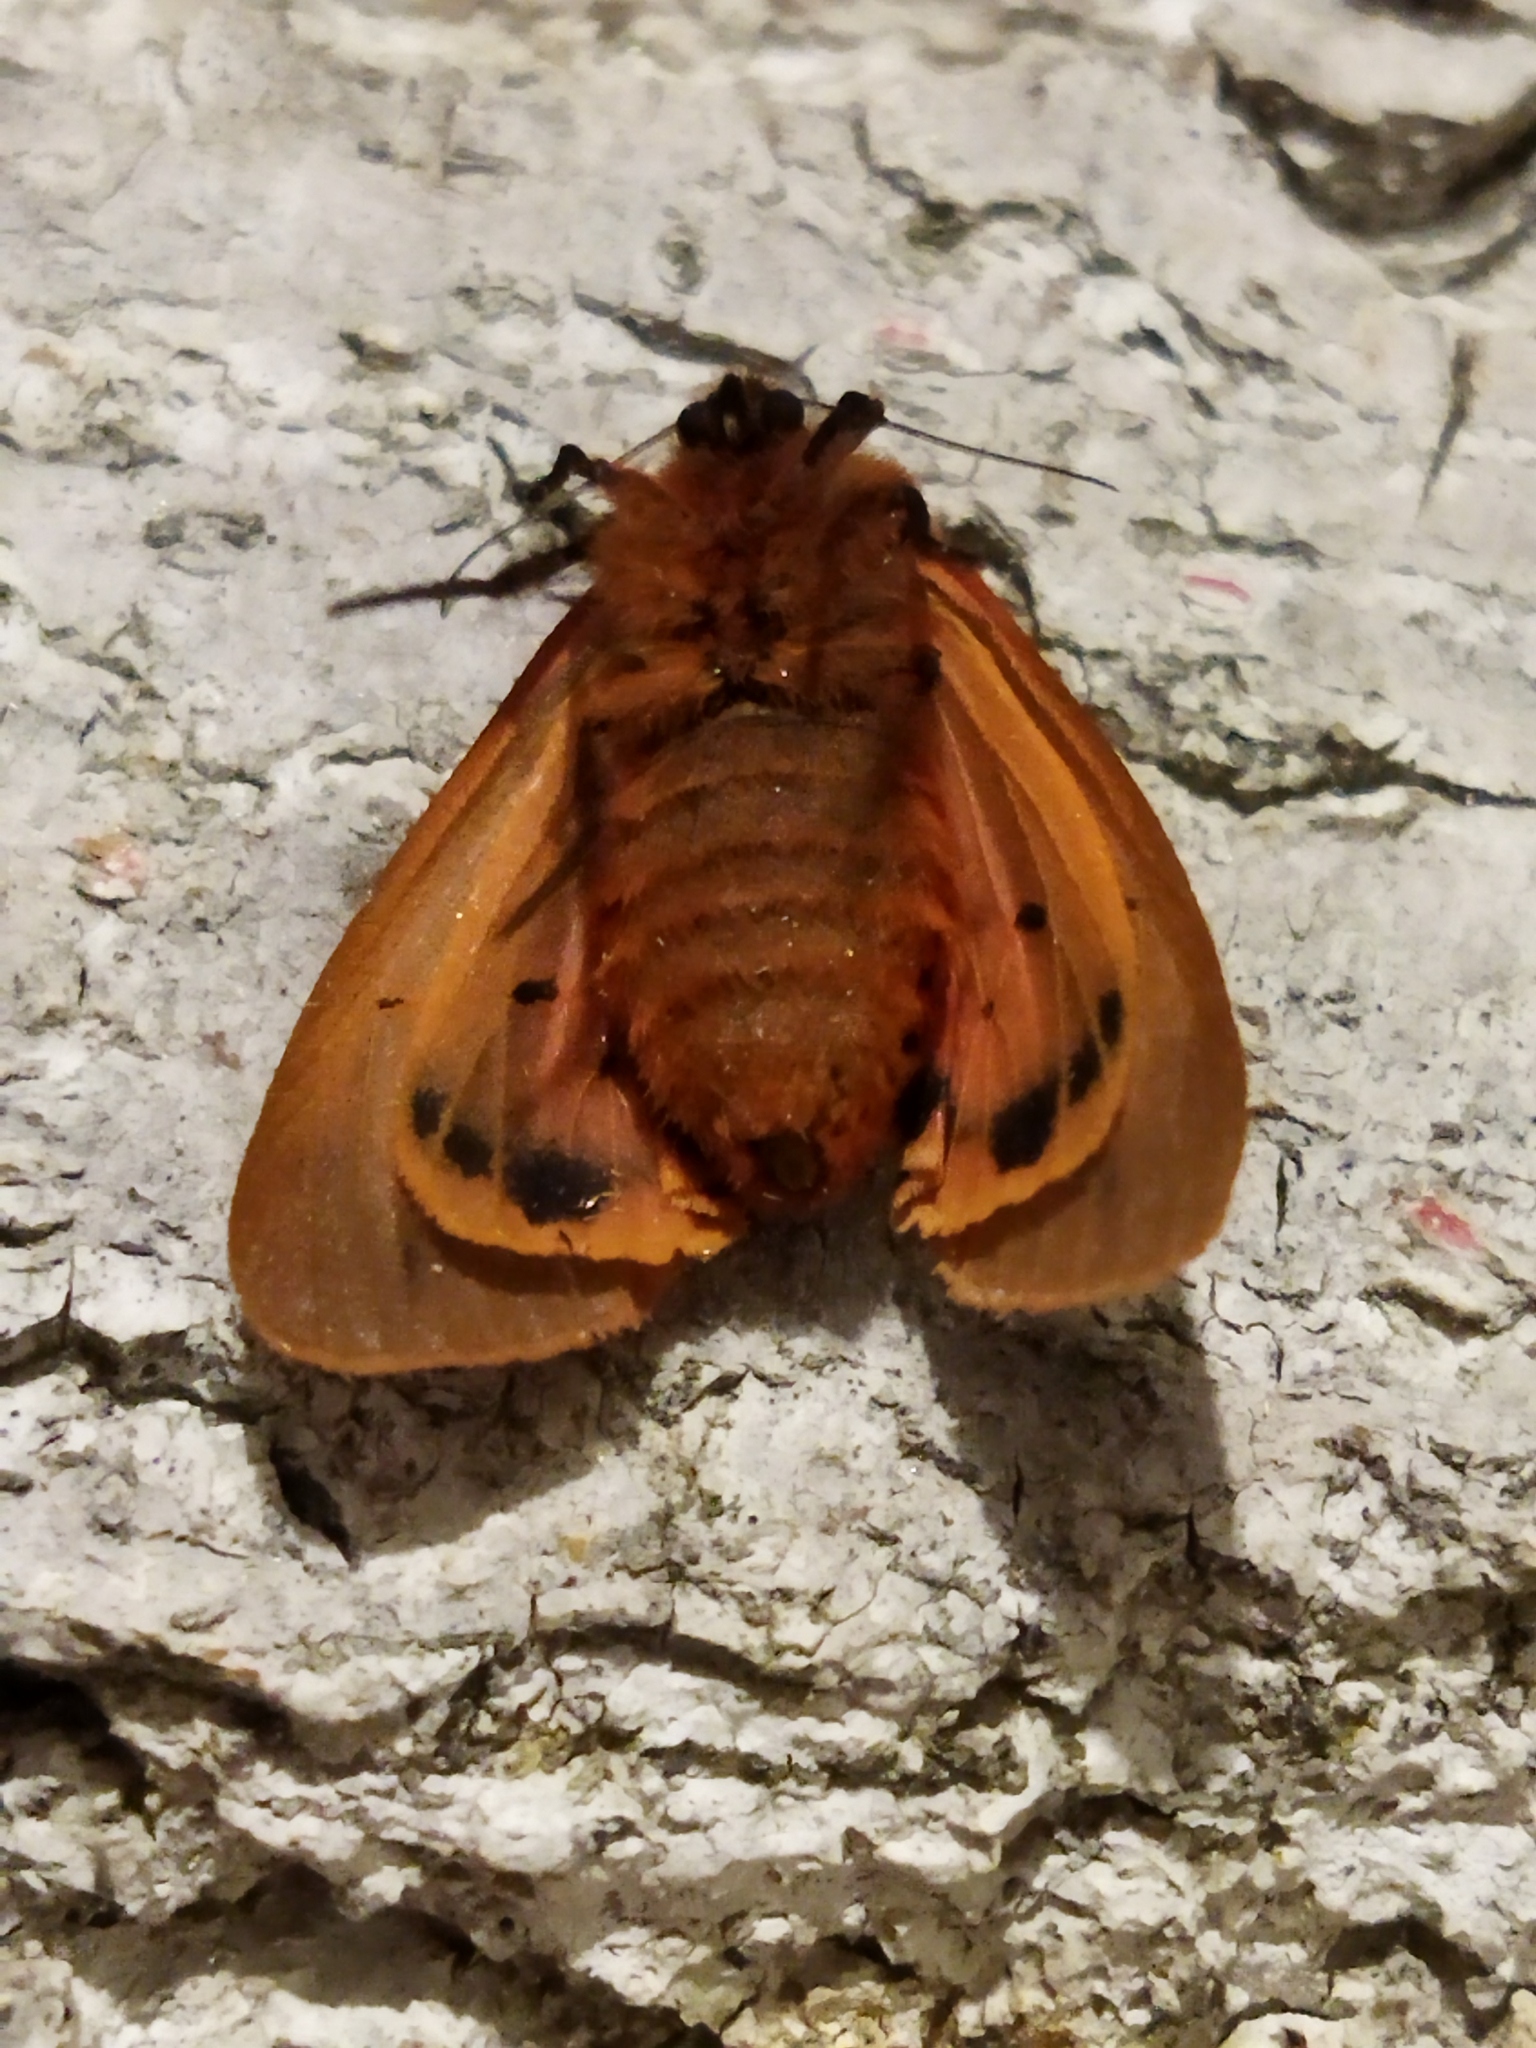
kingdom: Animalia
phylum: Arthropoda
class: Insecta
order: Lepidoptera
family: Erebidae
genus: Phragmatobia
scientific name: Phragmatobia fuliginosa
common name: Ruby tiger
